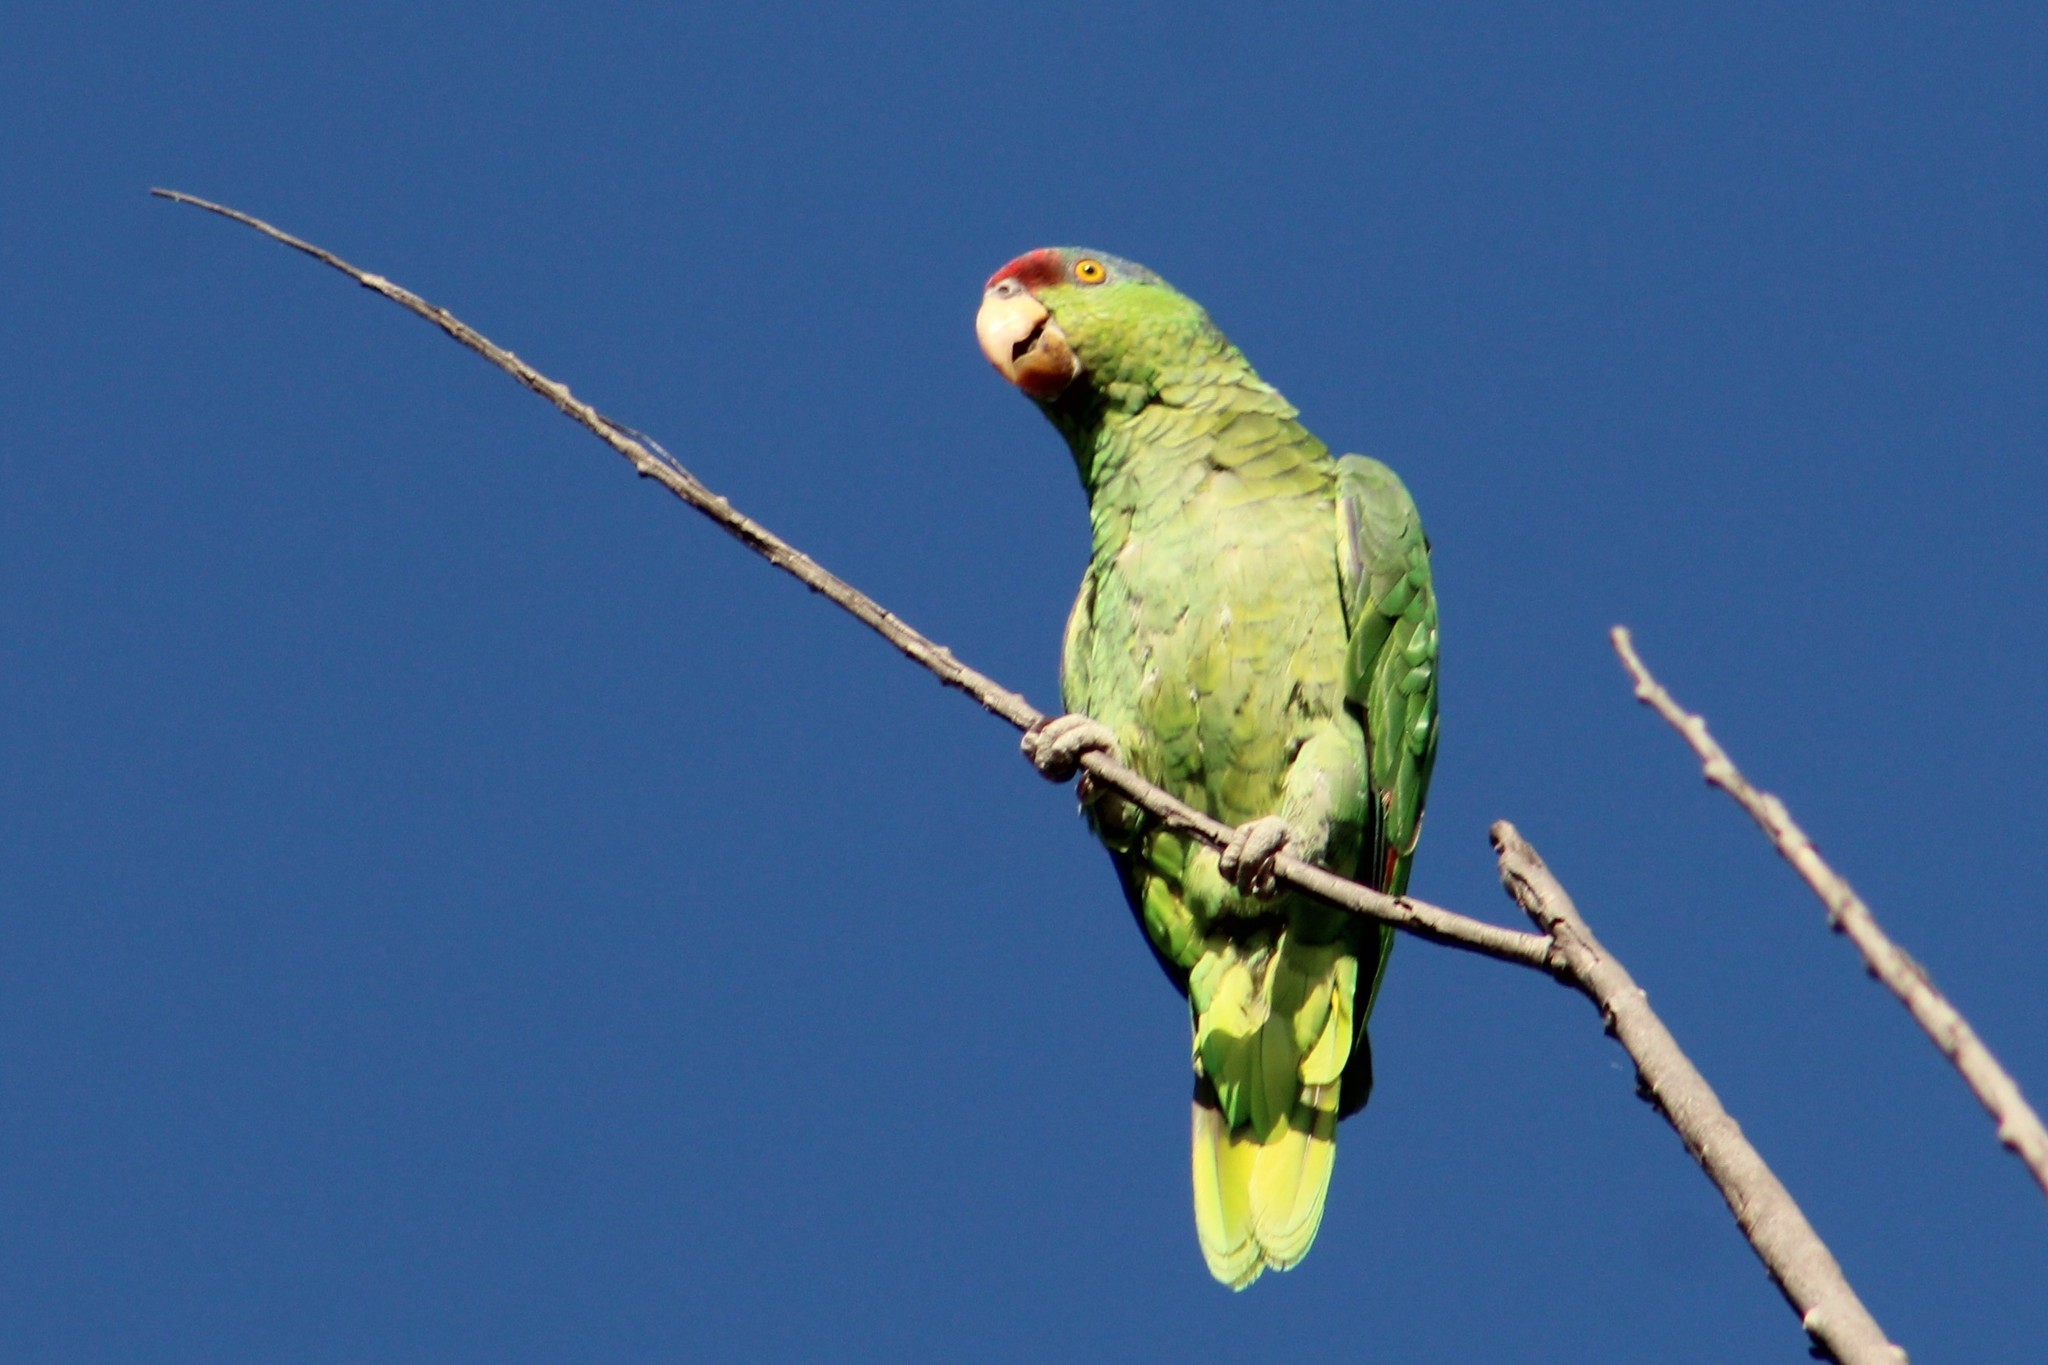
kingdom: Animalia
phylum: Chordata
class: Aves
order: Psittaciformes
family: Psittacidae
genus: Amazona
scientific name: Amazona finschi
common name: Lilac-crowned amazon
